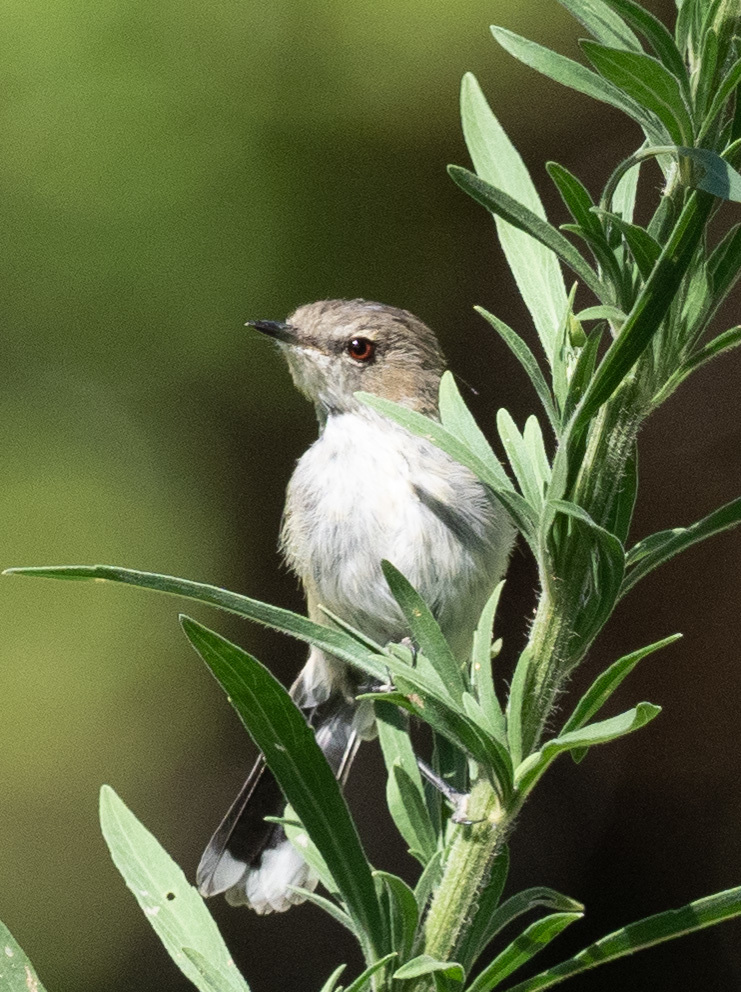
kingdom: Animalia
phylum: Chordata
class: Aves
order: Passeriformes
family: Acanthizidae
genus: Gerygone
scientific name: Gerygone igata
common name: Grey gerygone
